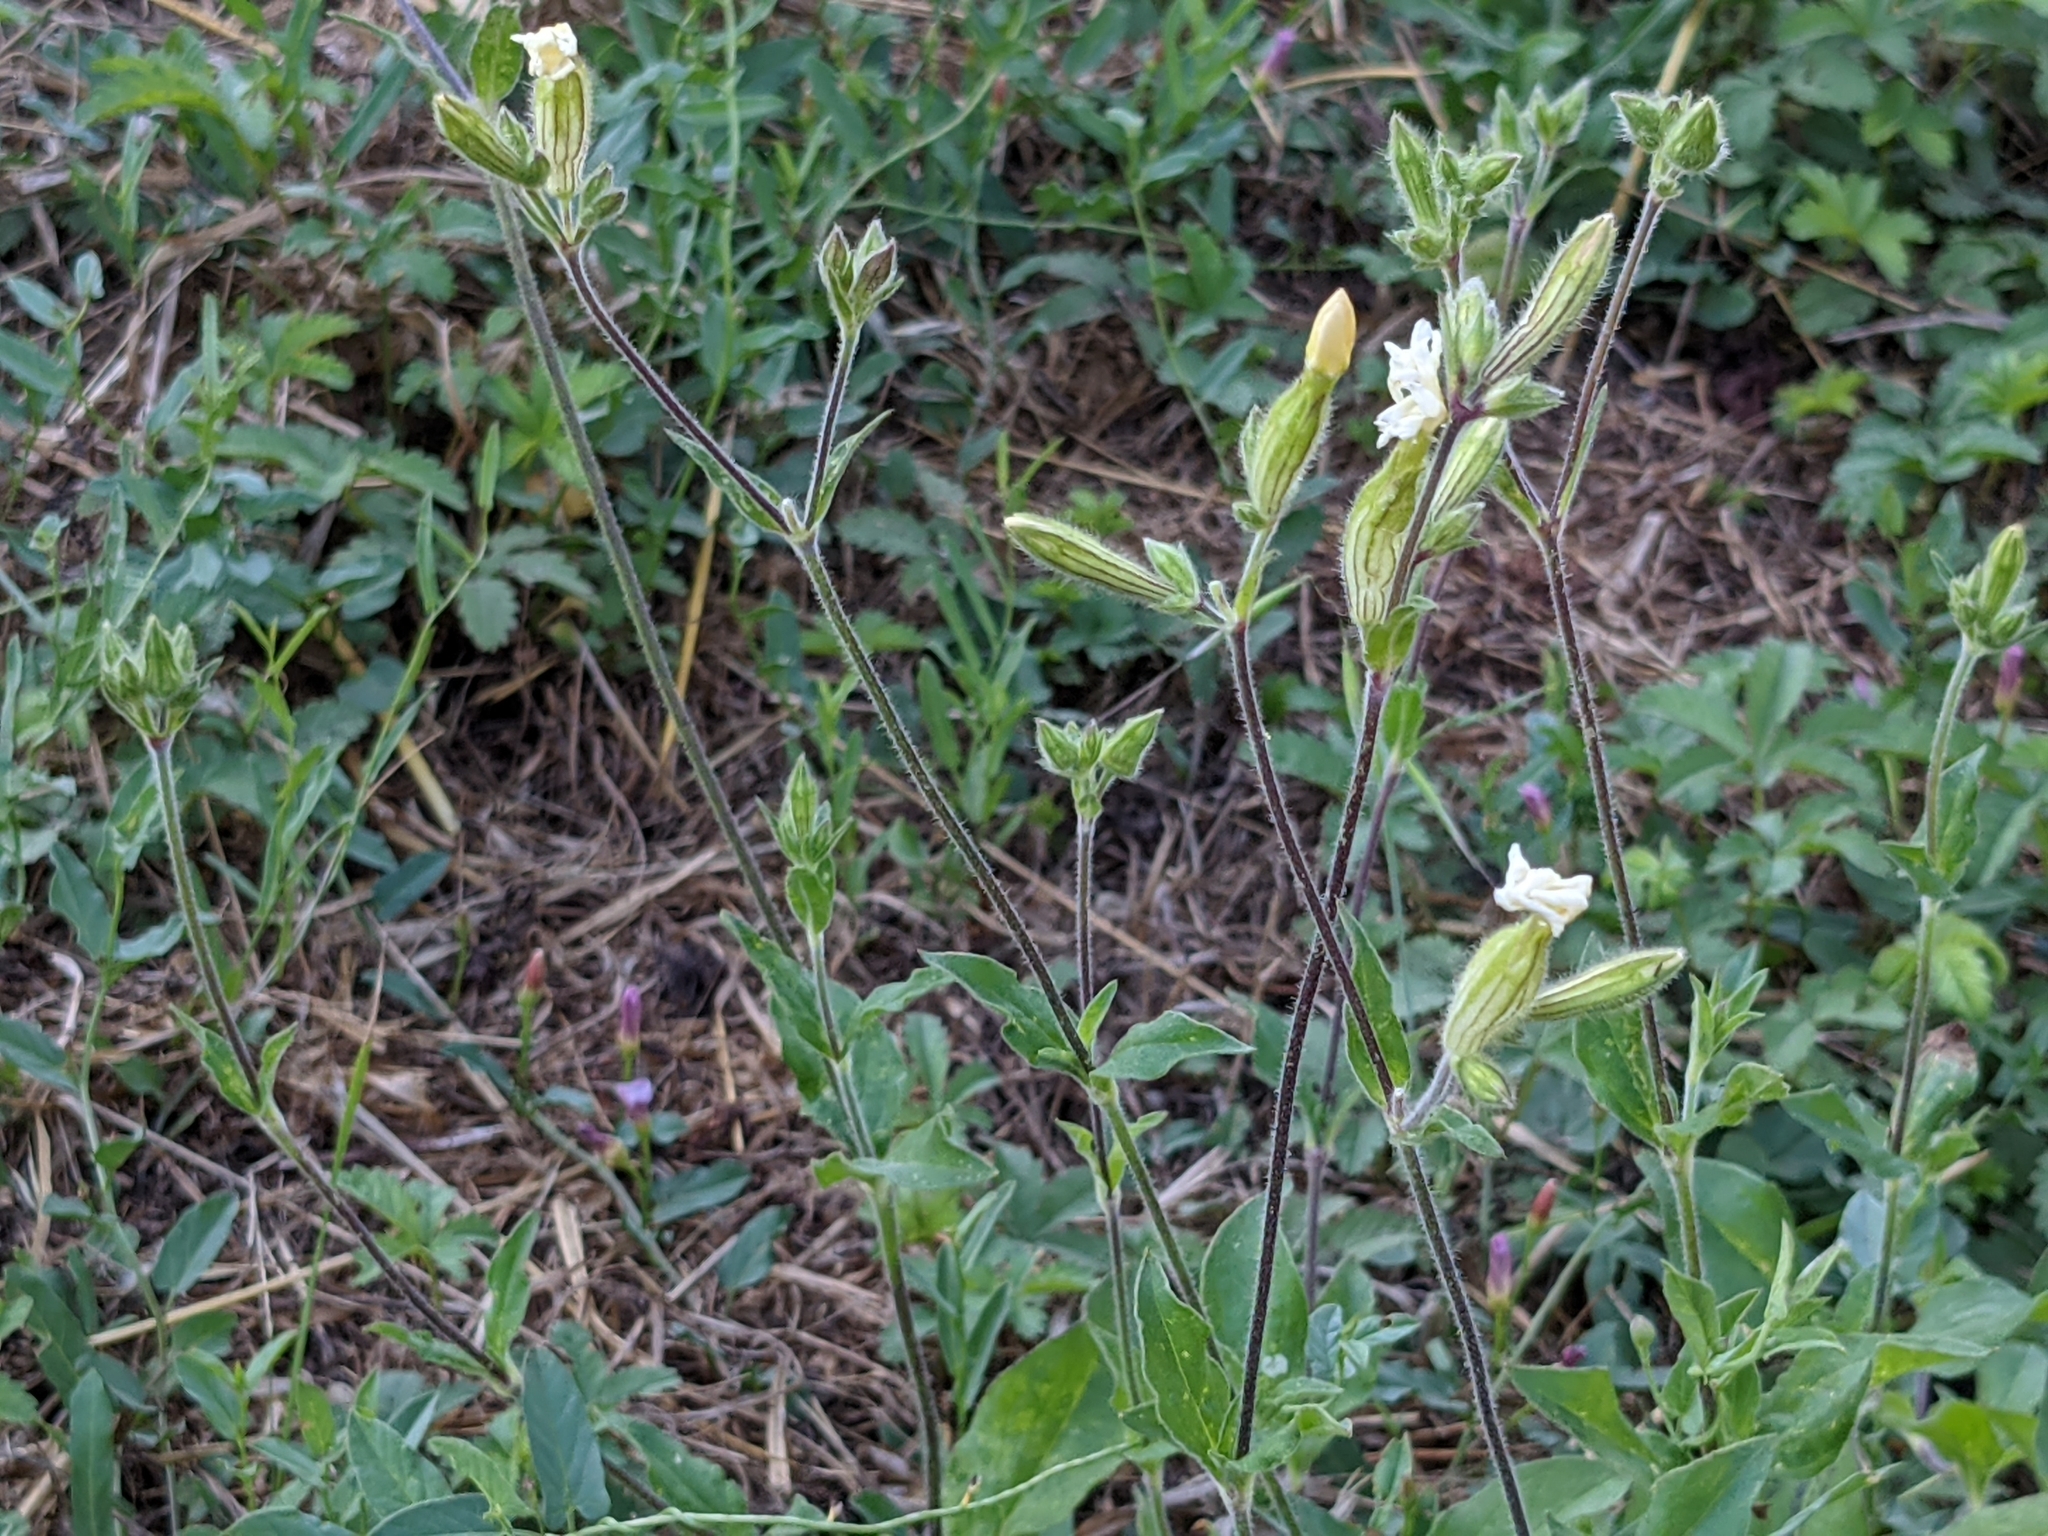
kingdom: Plantae
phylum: Tracheophyta
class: Magnoliopsida
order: Caryophyllales
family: Caryophyllaceae
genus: Silene
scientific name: Silene latifolia
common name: White campion
